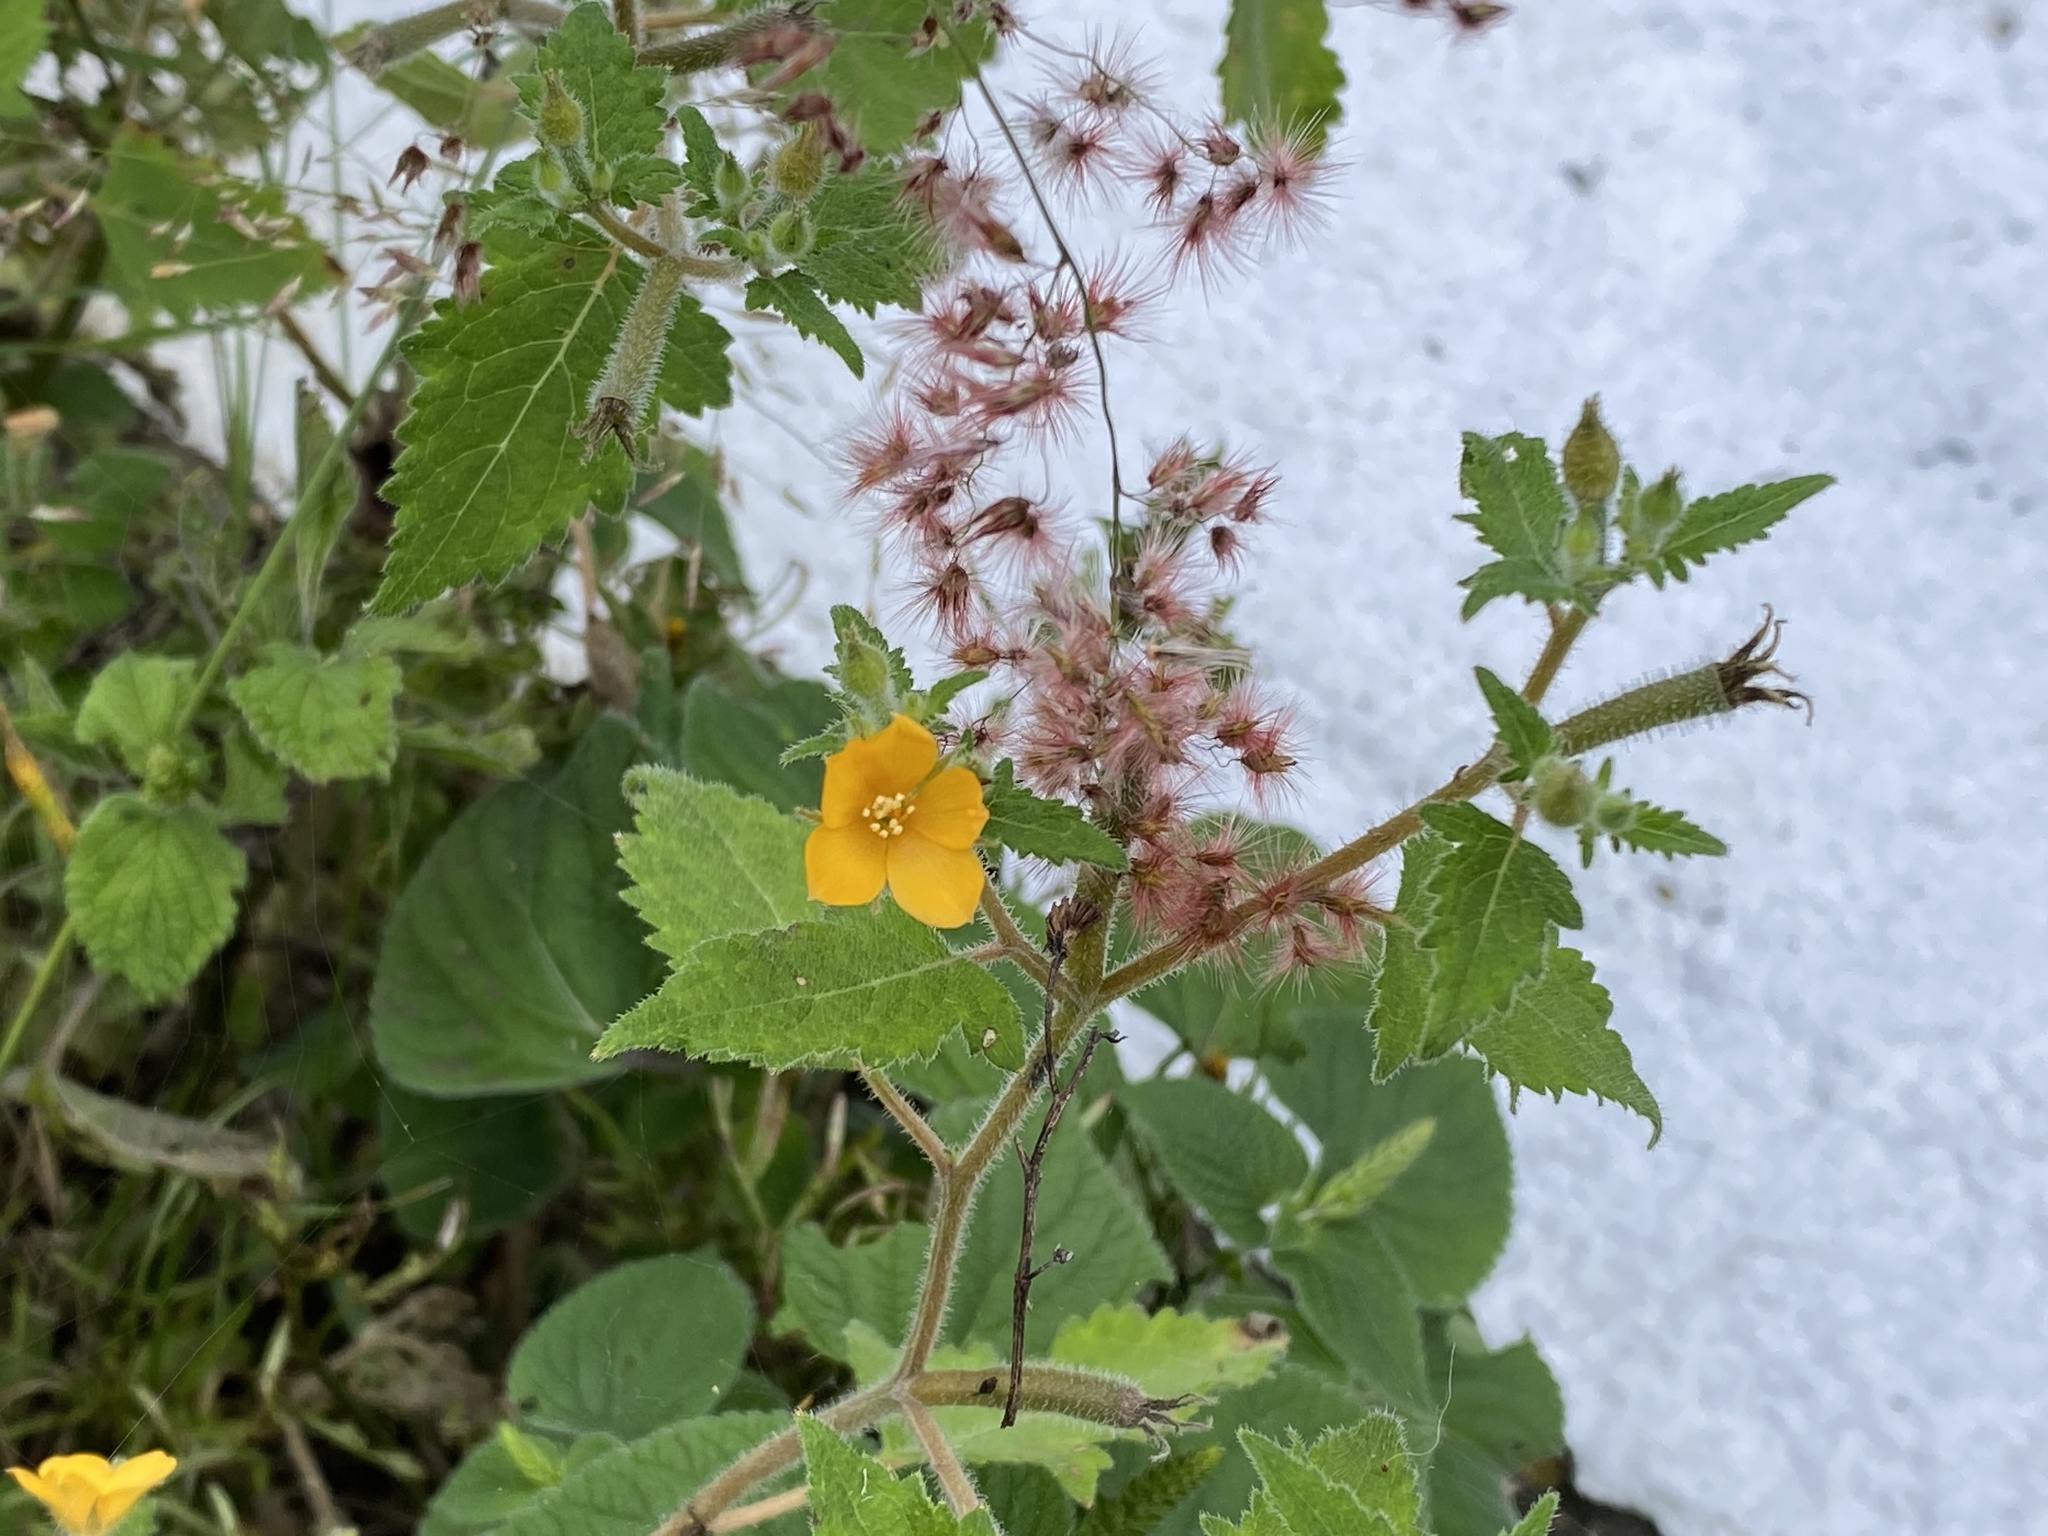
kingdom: Plantae
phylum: Tracheophyta
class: Magnoliopsida
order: Cornales
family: Loasaceae
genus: Mentzelia
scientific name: Mentzelia aspera
